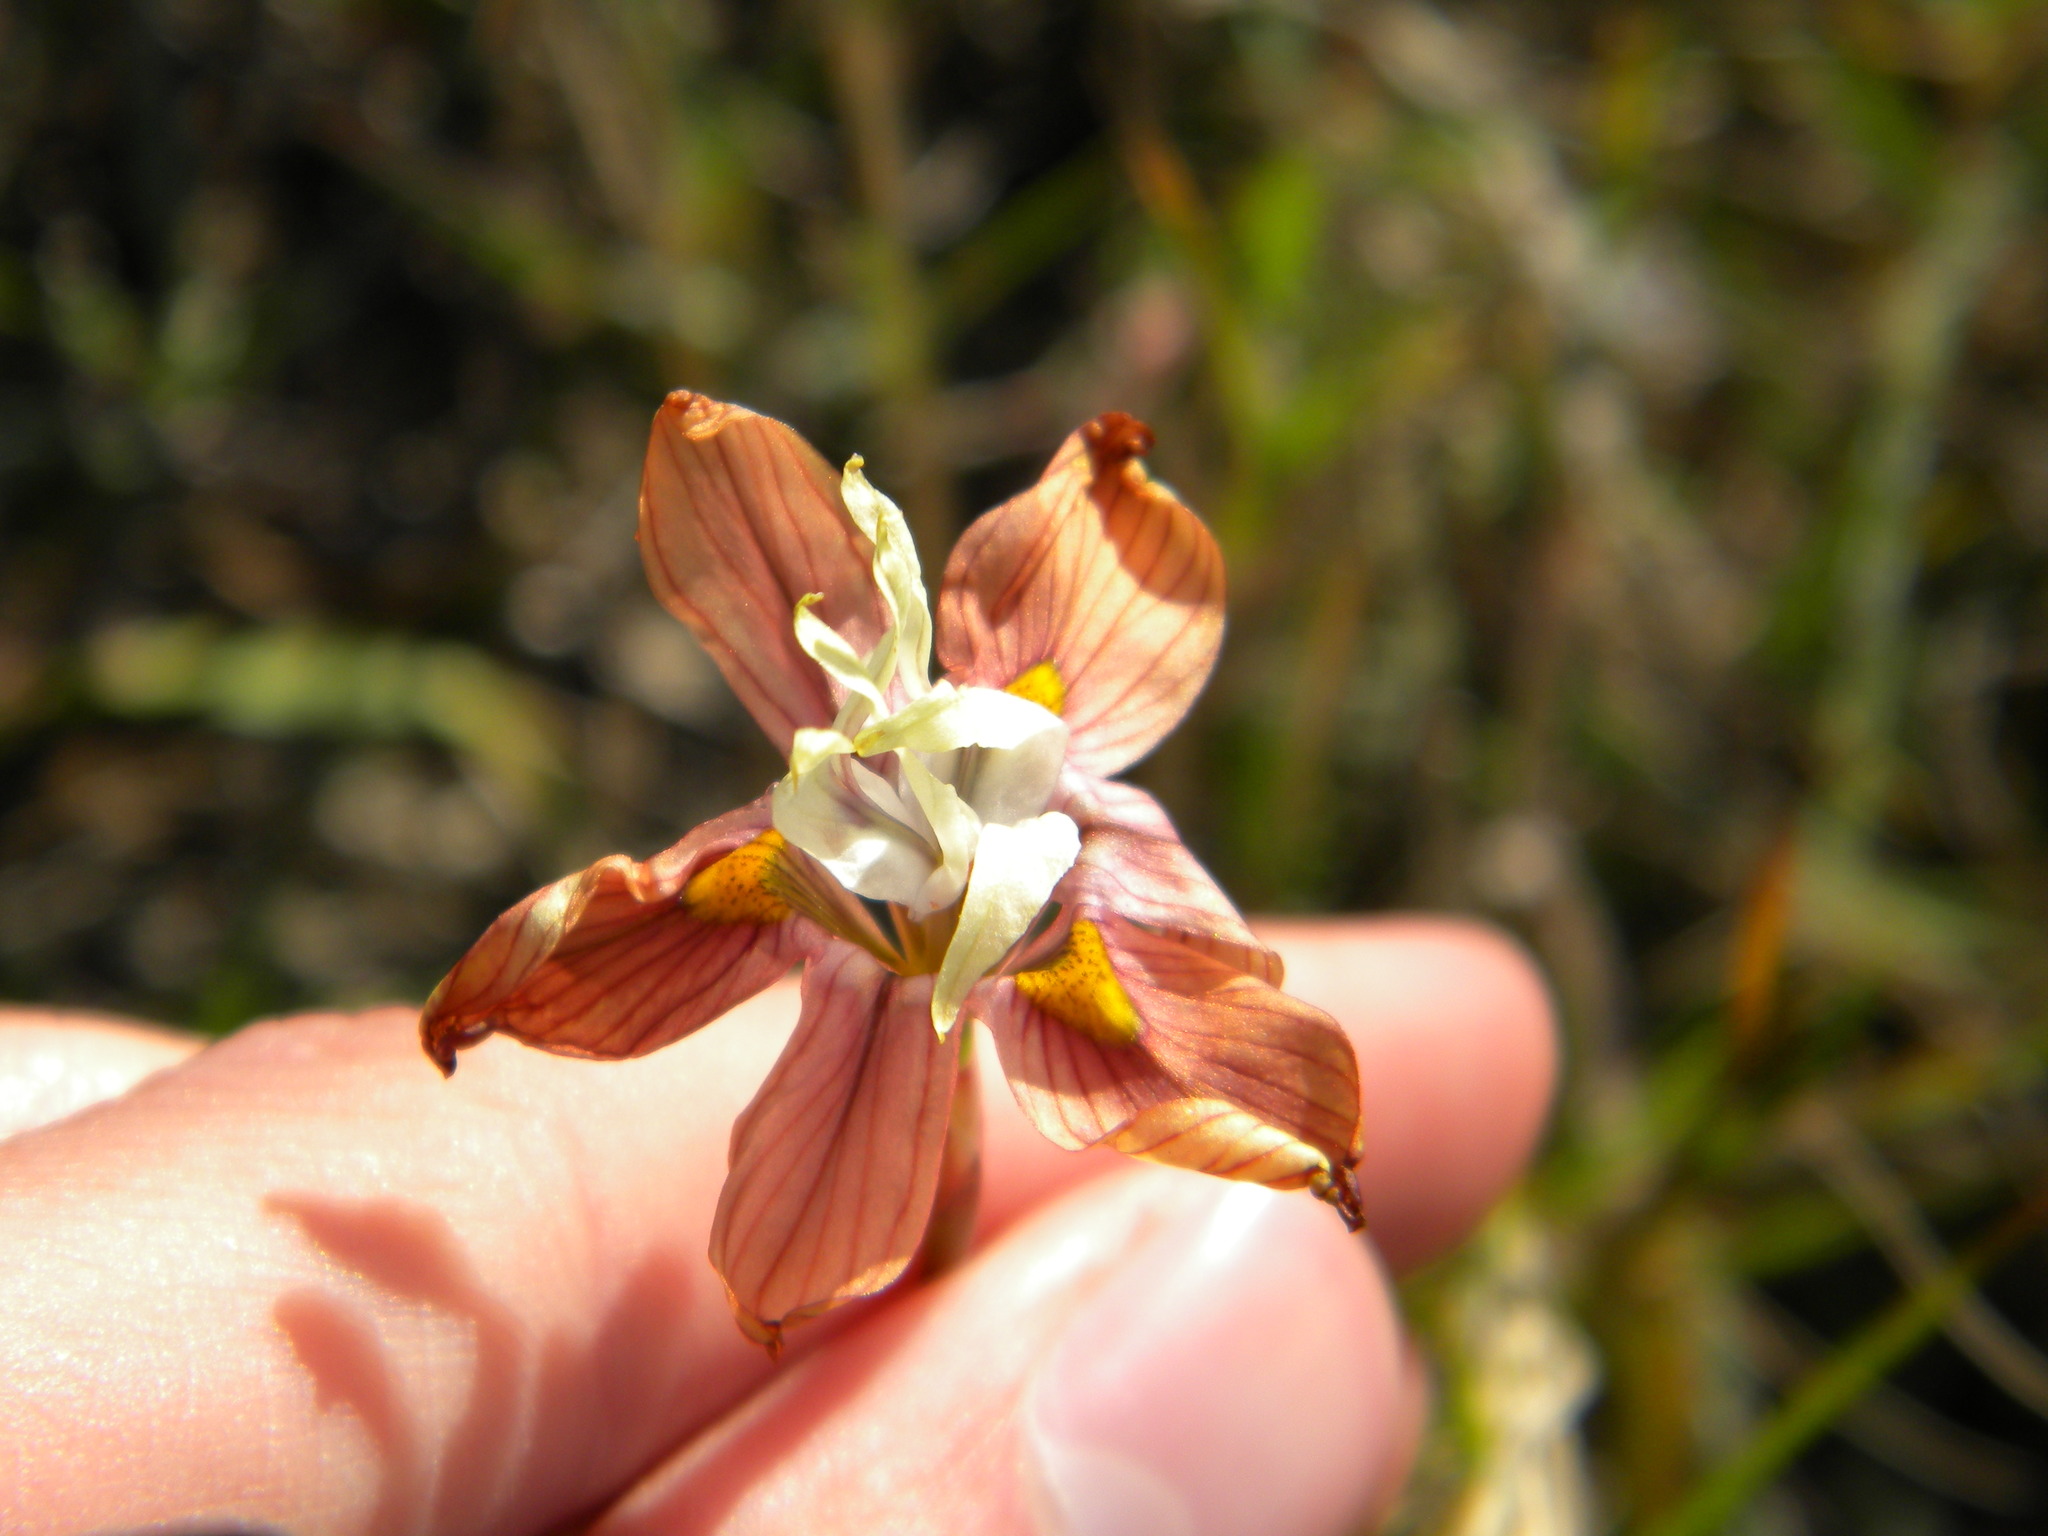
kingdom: Plantae
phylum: Tracheophyta
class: Liliopsida
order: Asparagales
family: Iridaceae
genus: Moraea
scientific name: Moraea gawleri
